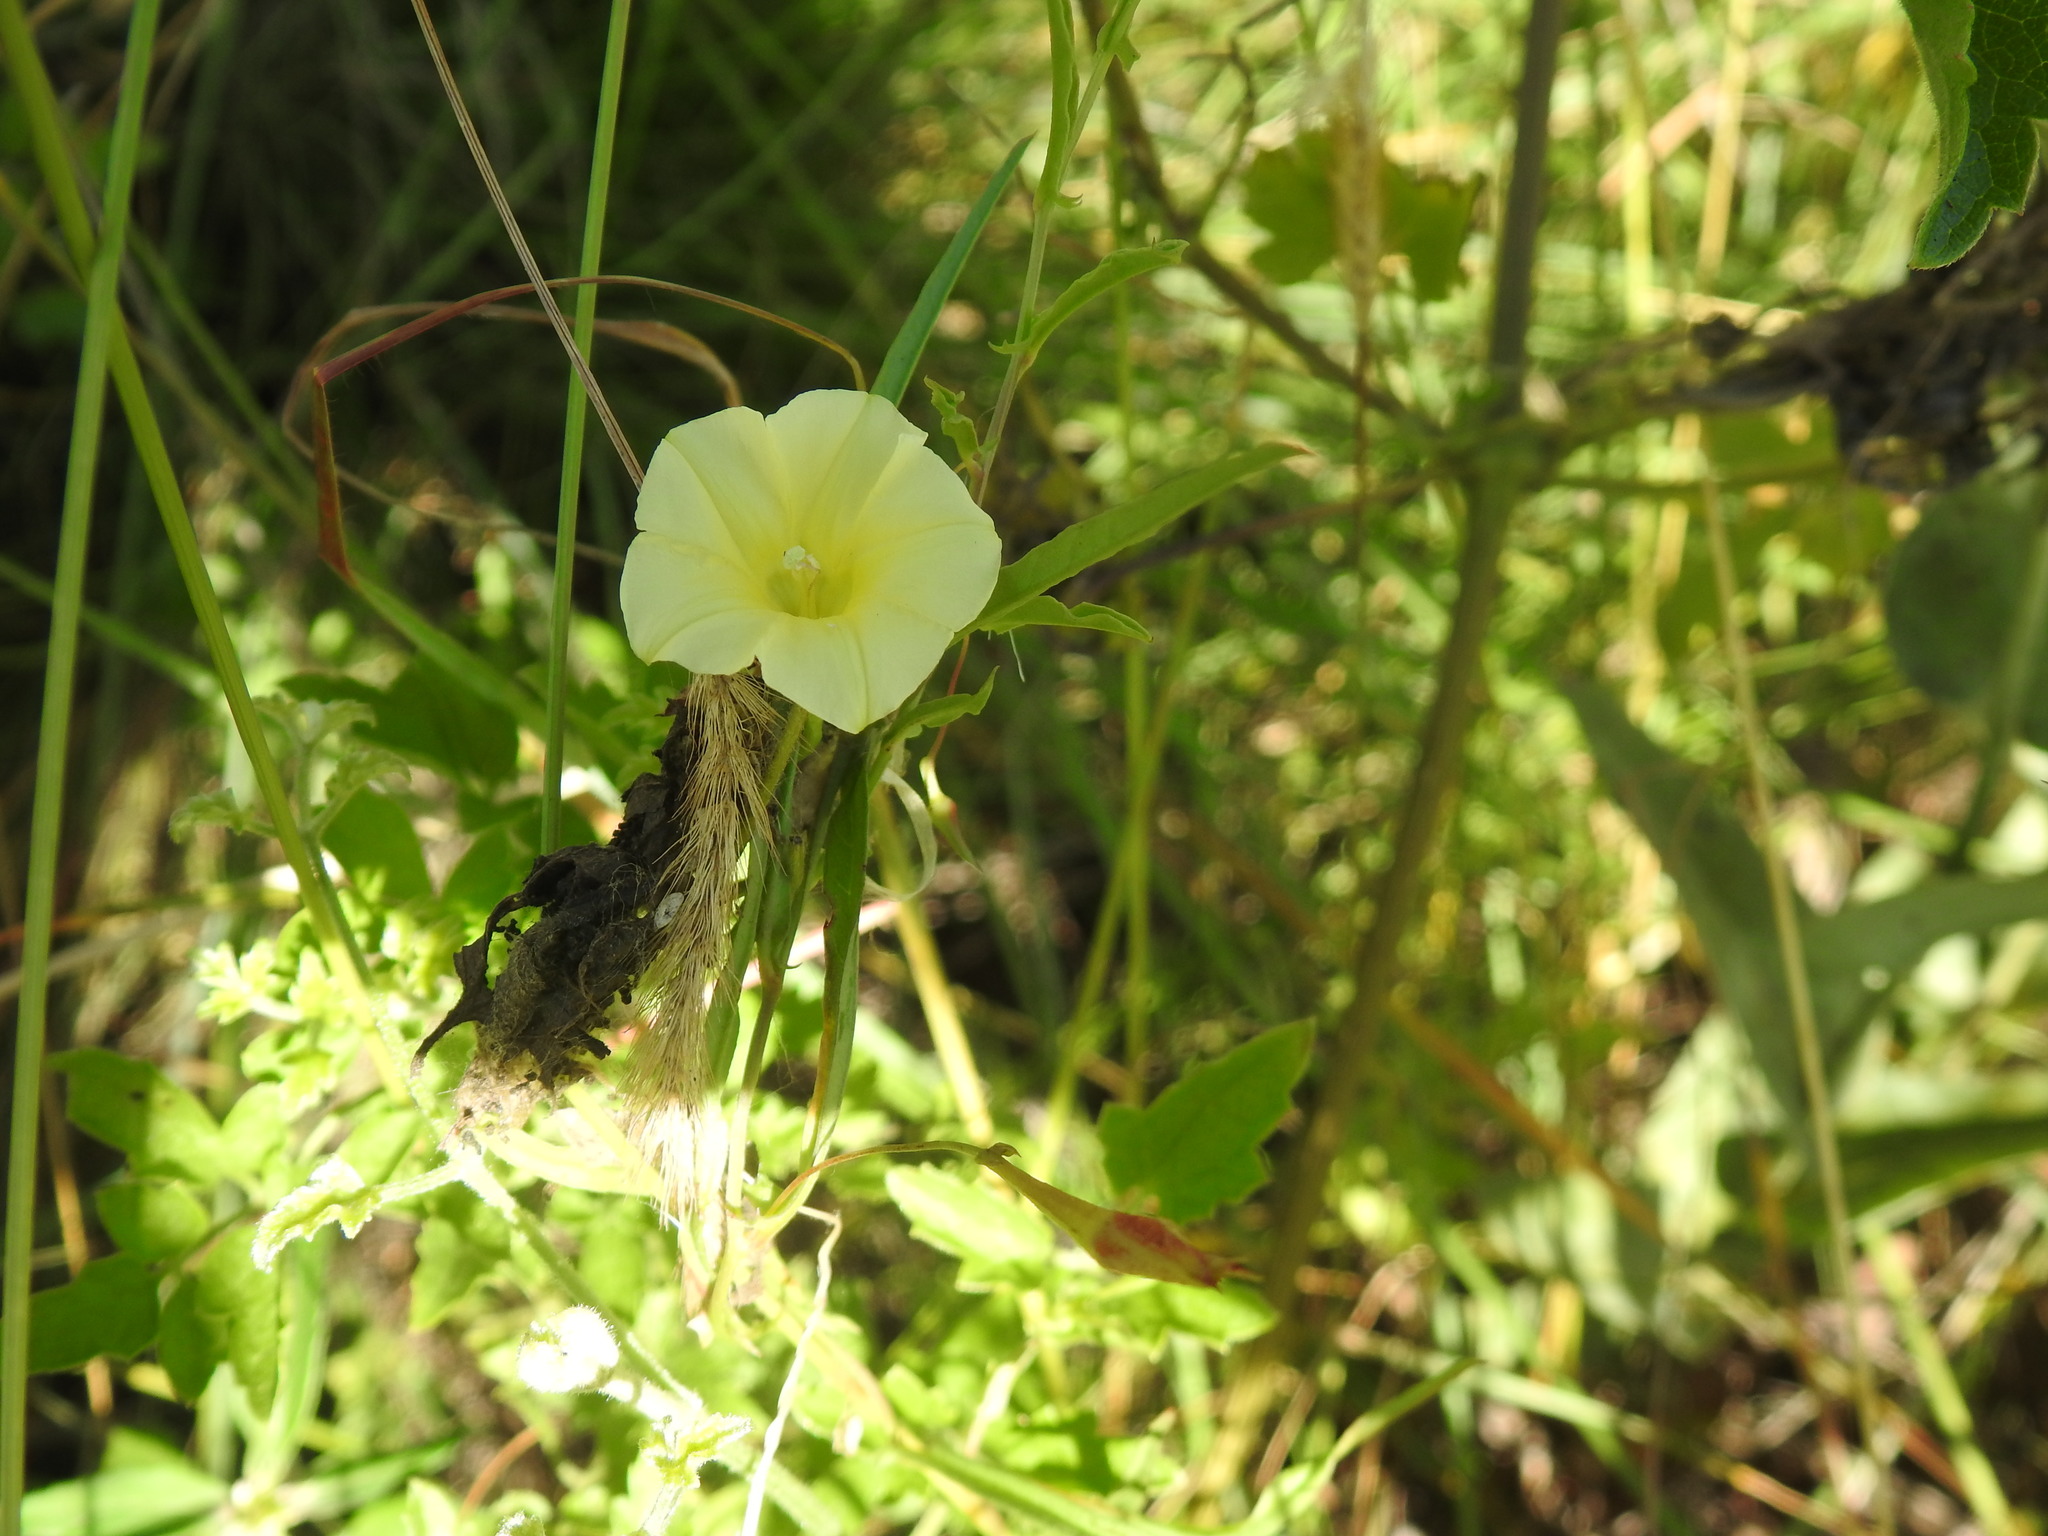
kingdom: Plantae
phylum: Tracheophyta
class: Magnoliopsida
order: Solanales
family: Convolvulaceae
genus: Xenostegia
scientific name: Xenostegia tridentata
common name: African morningvine
